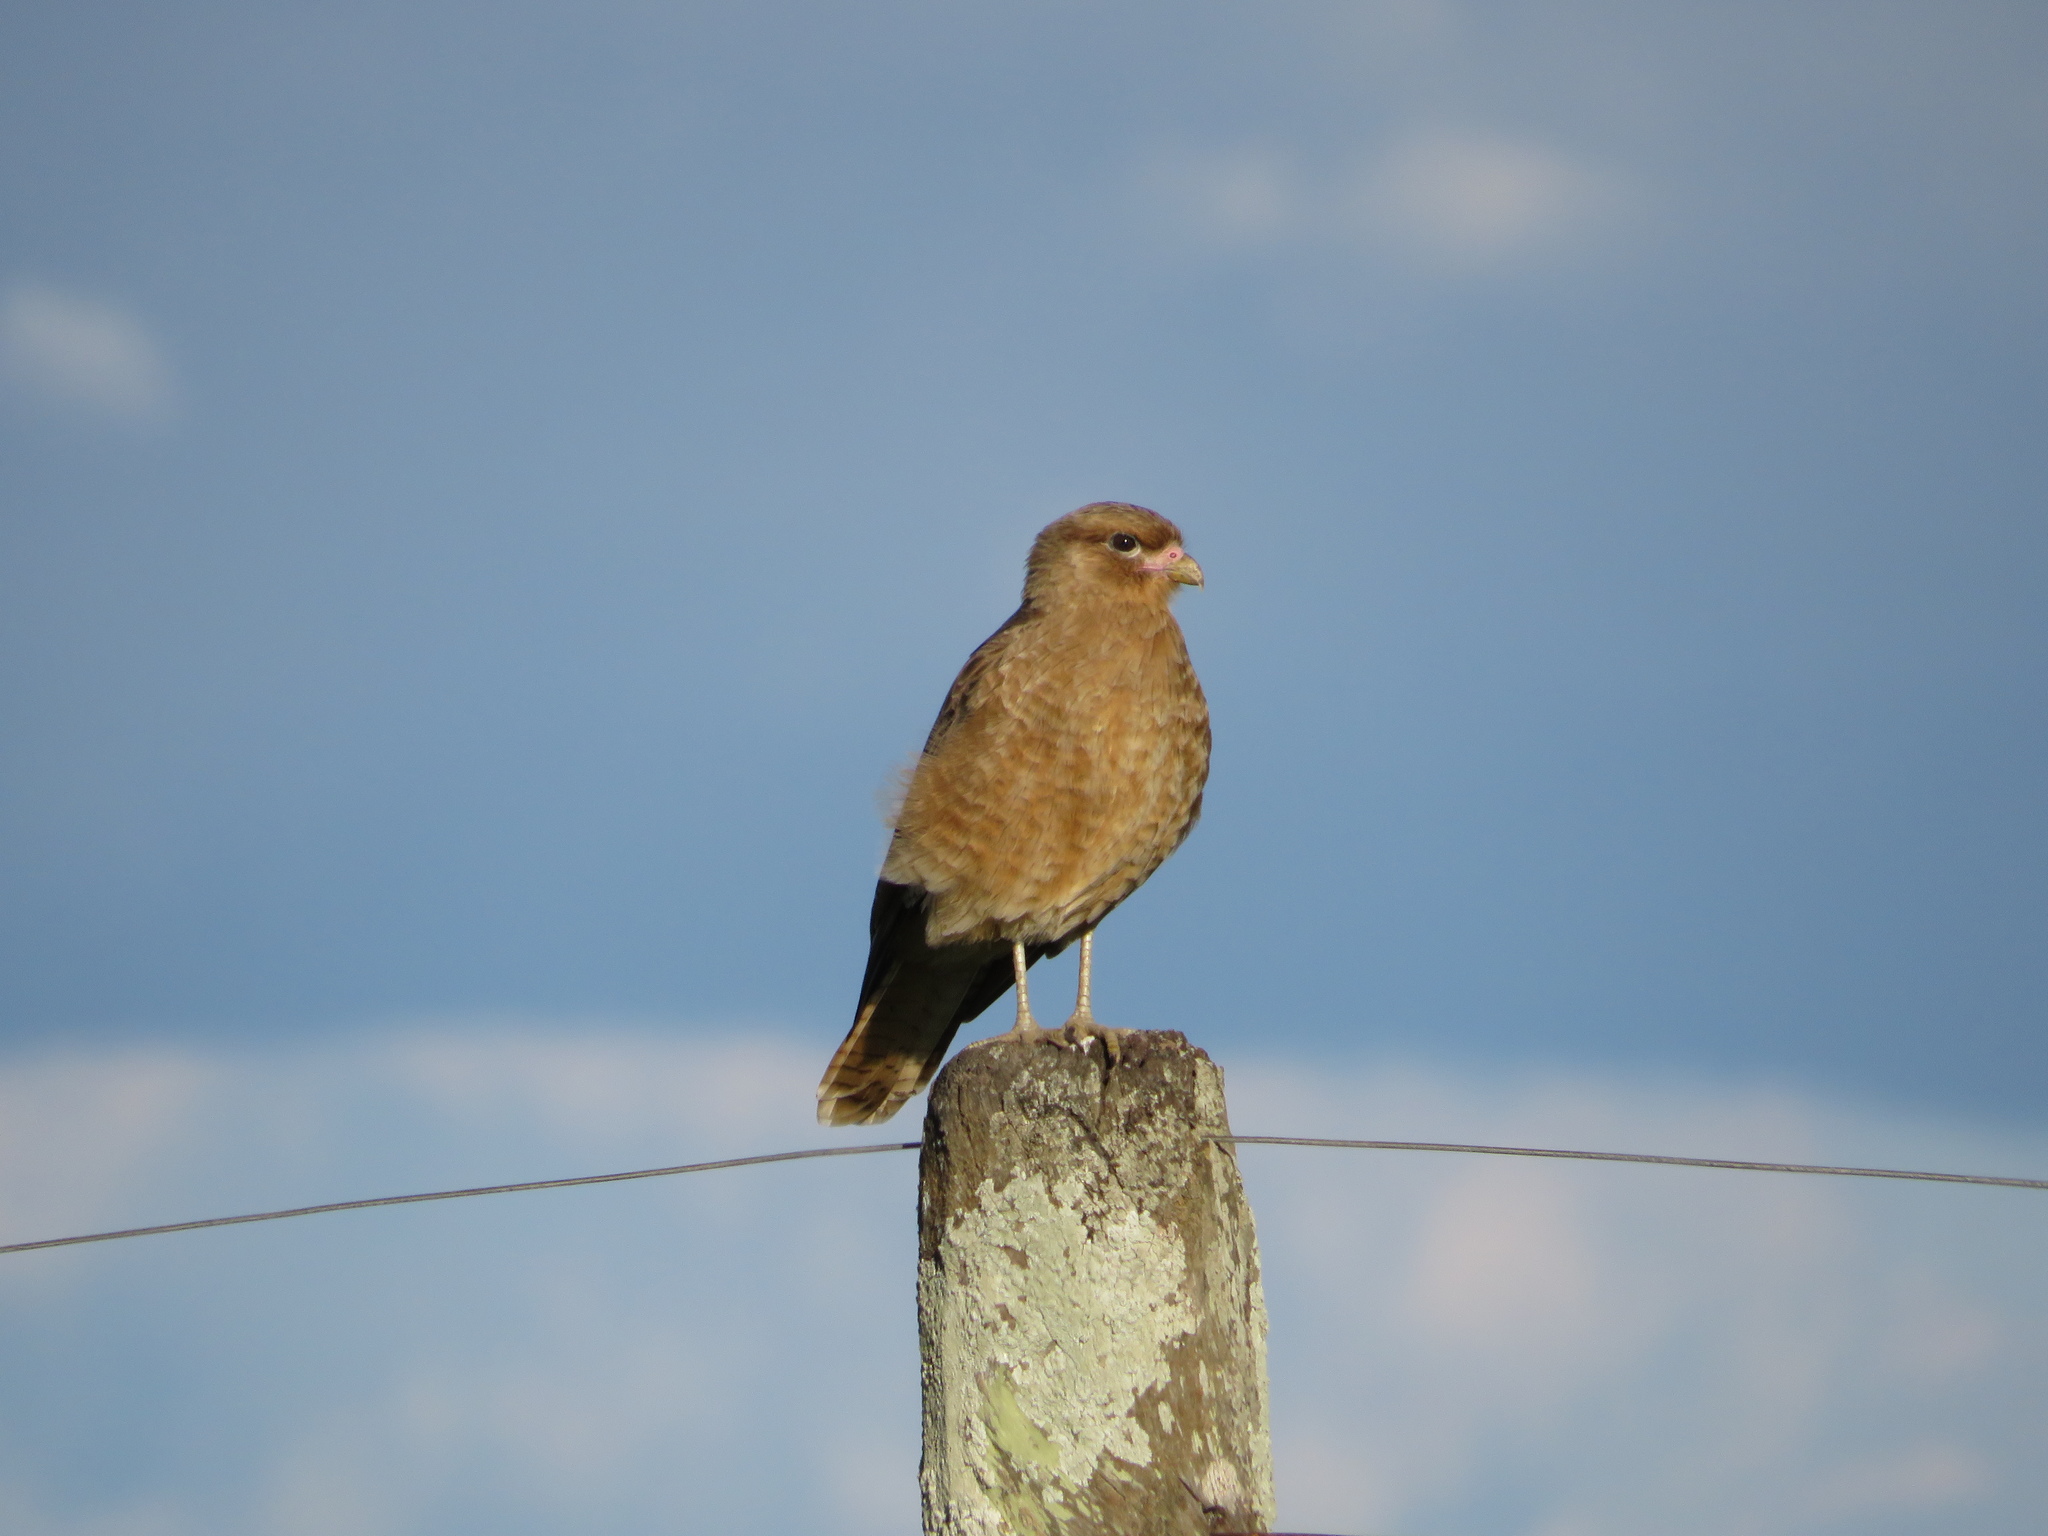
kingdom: Animalia
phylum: Chordata
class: Aves
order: Falconiformes
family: Falconidae
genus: Daptrius
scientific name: Daptrius
